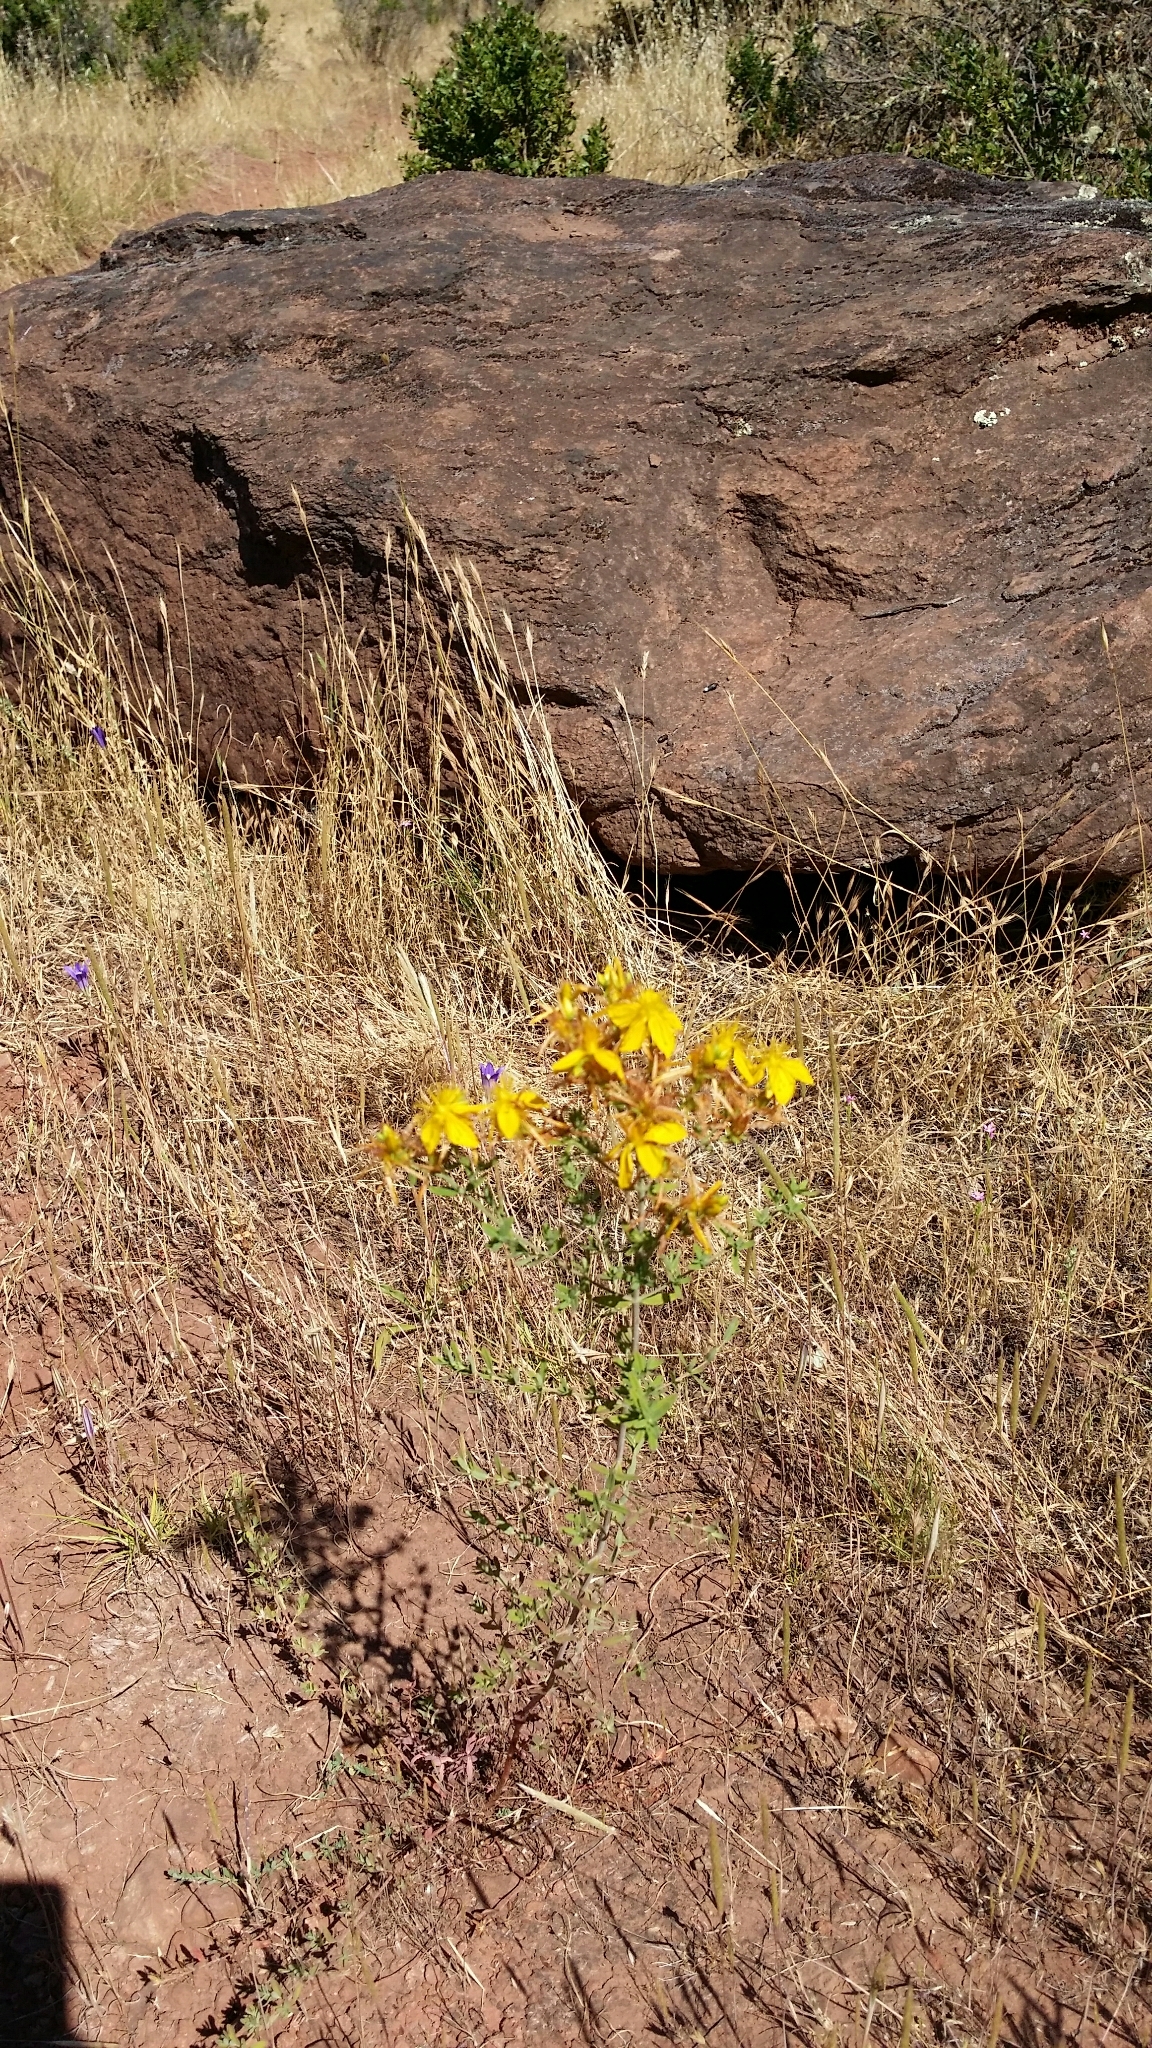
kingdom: Plantae
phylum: Tracheophyta
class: Magnoliopsida
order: Malpighiales
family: Hypericaceae
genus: Hypericum
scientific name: Hypericum perforatum
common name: Common st. johnswort
